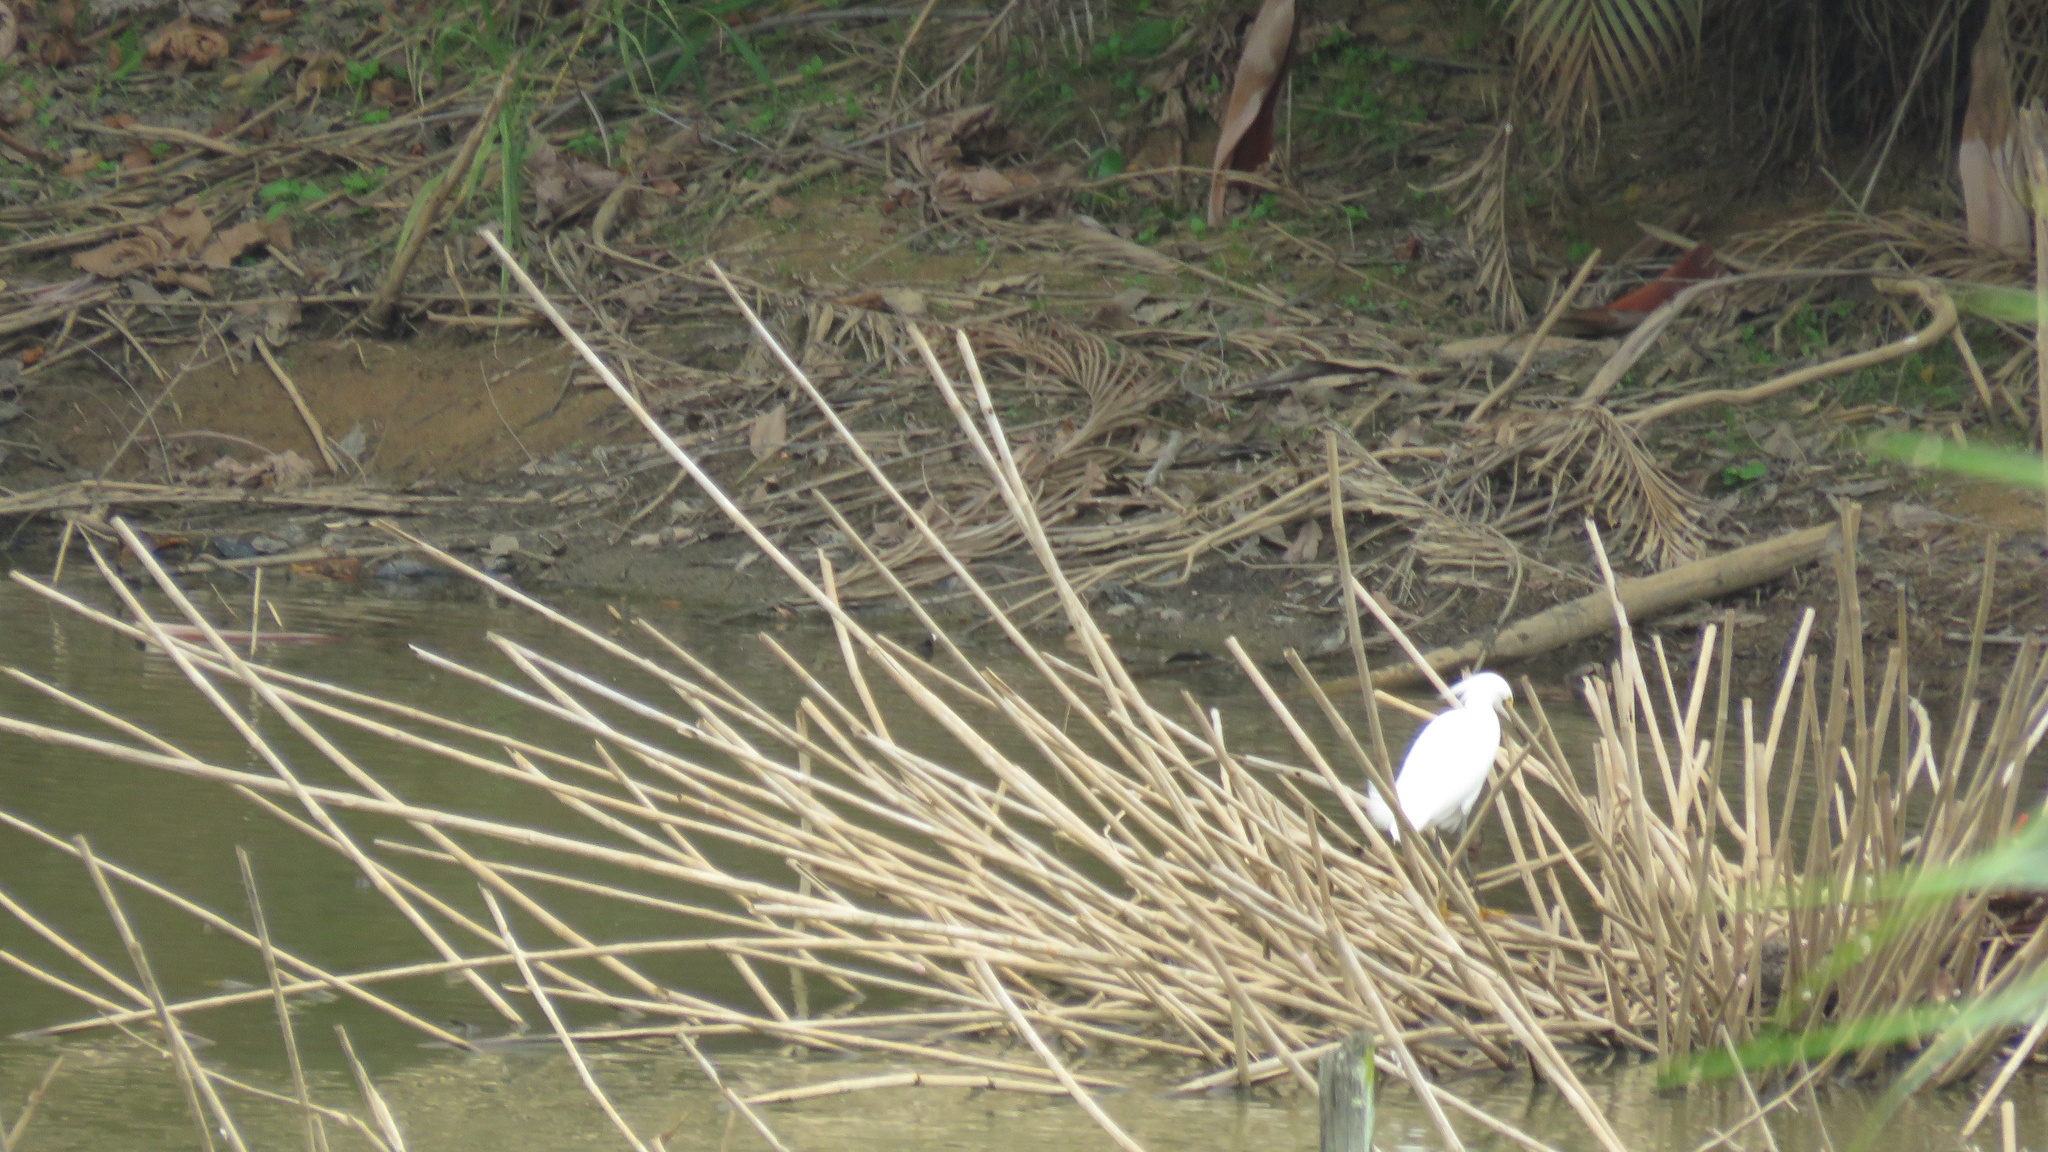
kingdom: Animalia
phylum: Chordata
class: Aves
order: Pelecaniformes
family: Ardeidae
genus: Egretta
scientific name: Egretta thula
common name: Snowy egret
